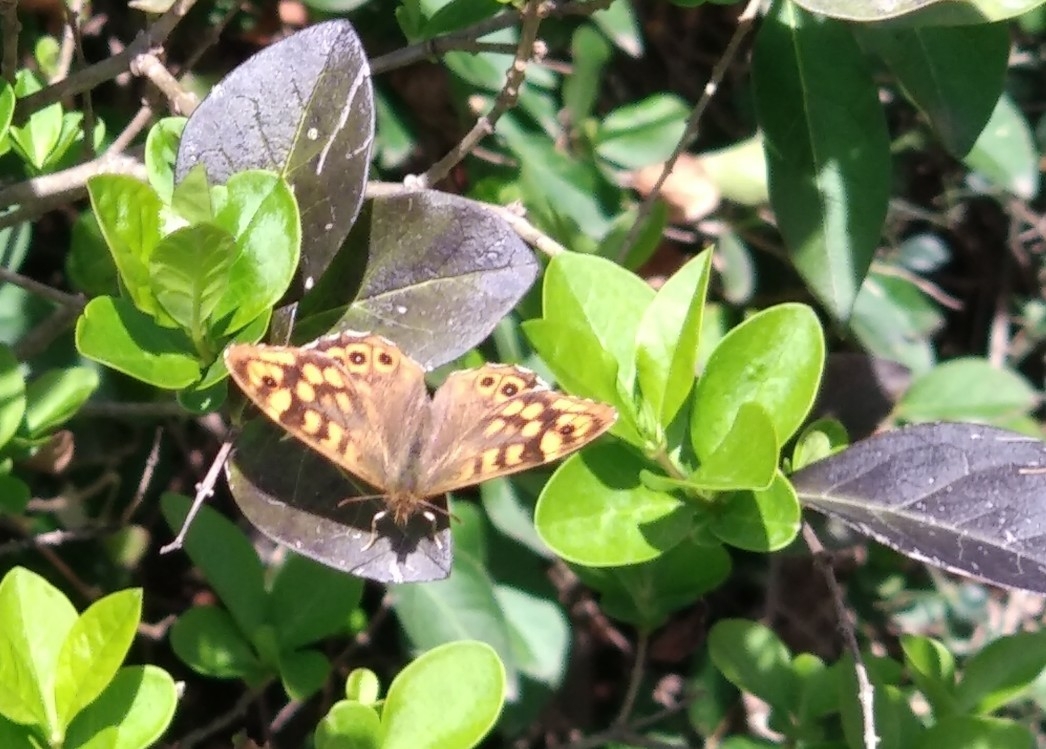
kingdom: Animalia
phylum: Arthropoda
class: Insecta
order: Lepidoptera
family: Nymphalidae
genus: Pararge
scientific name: Pararge aegeria
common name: Speckled wood
